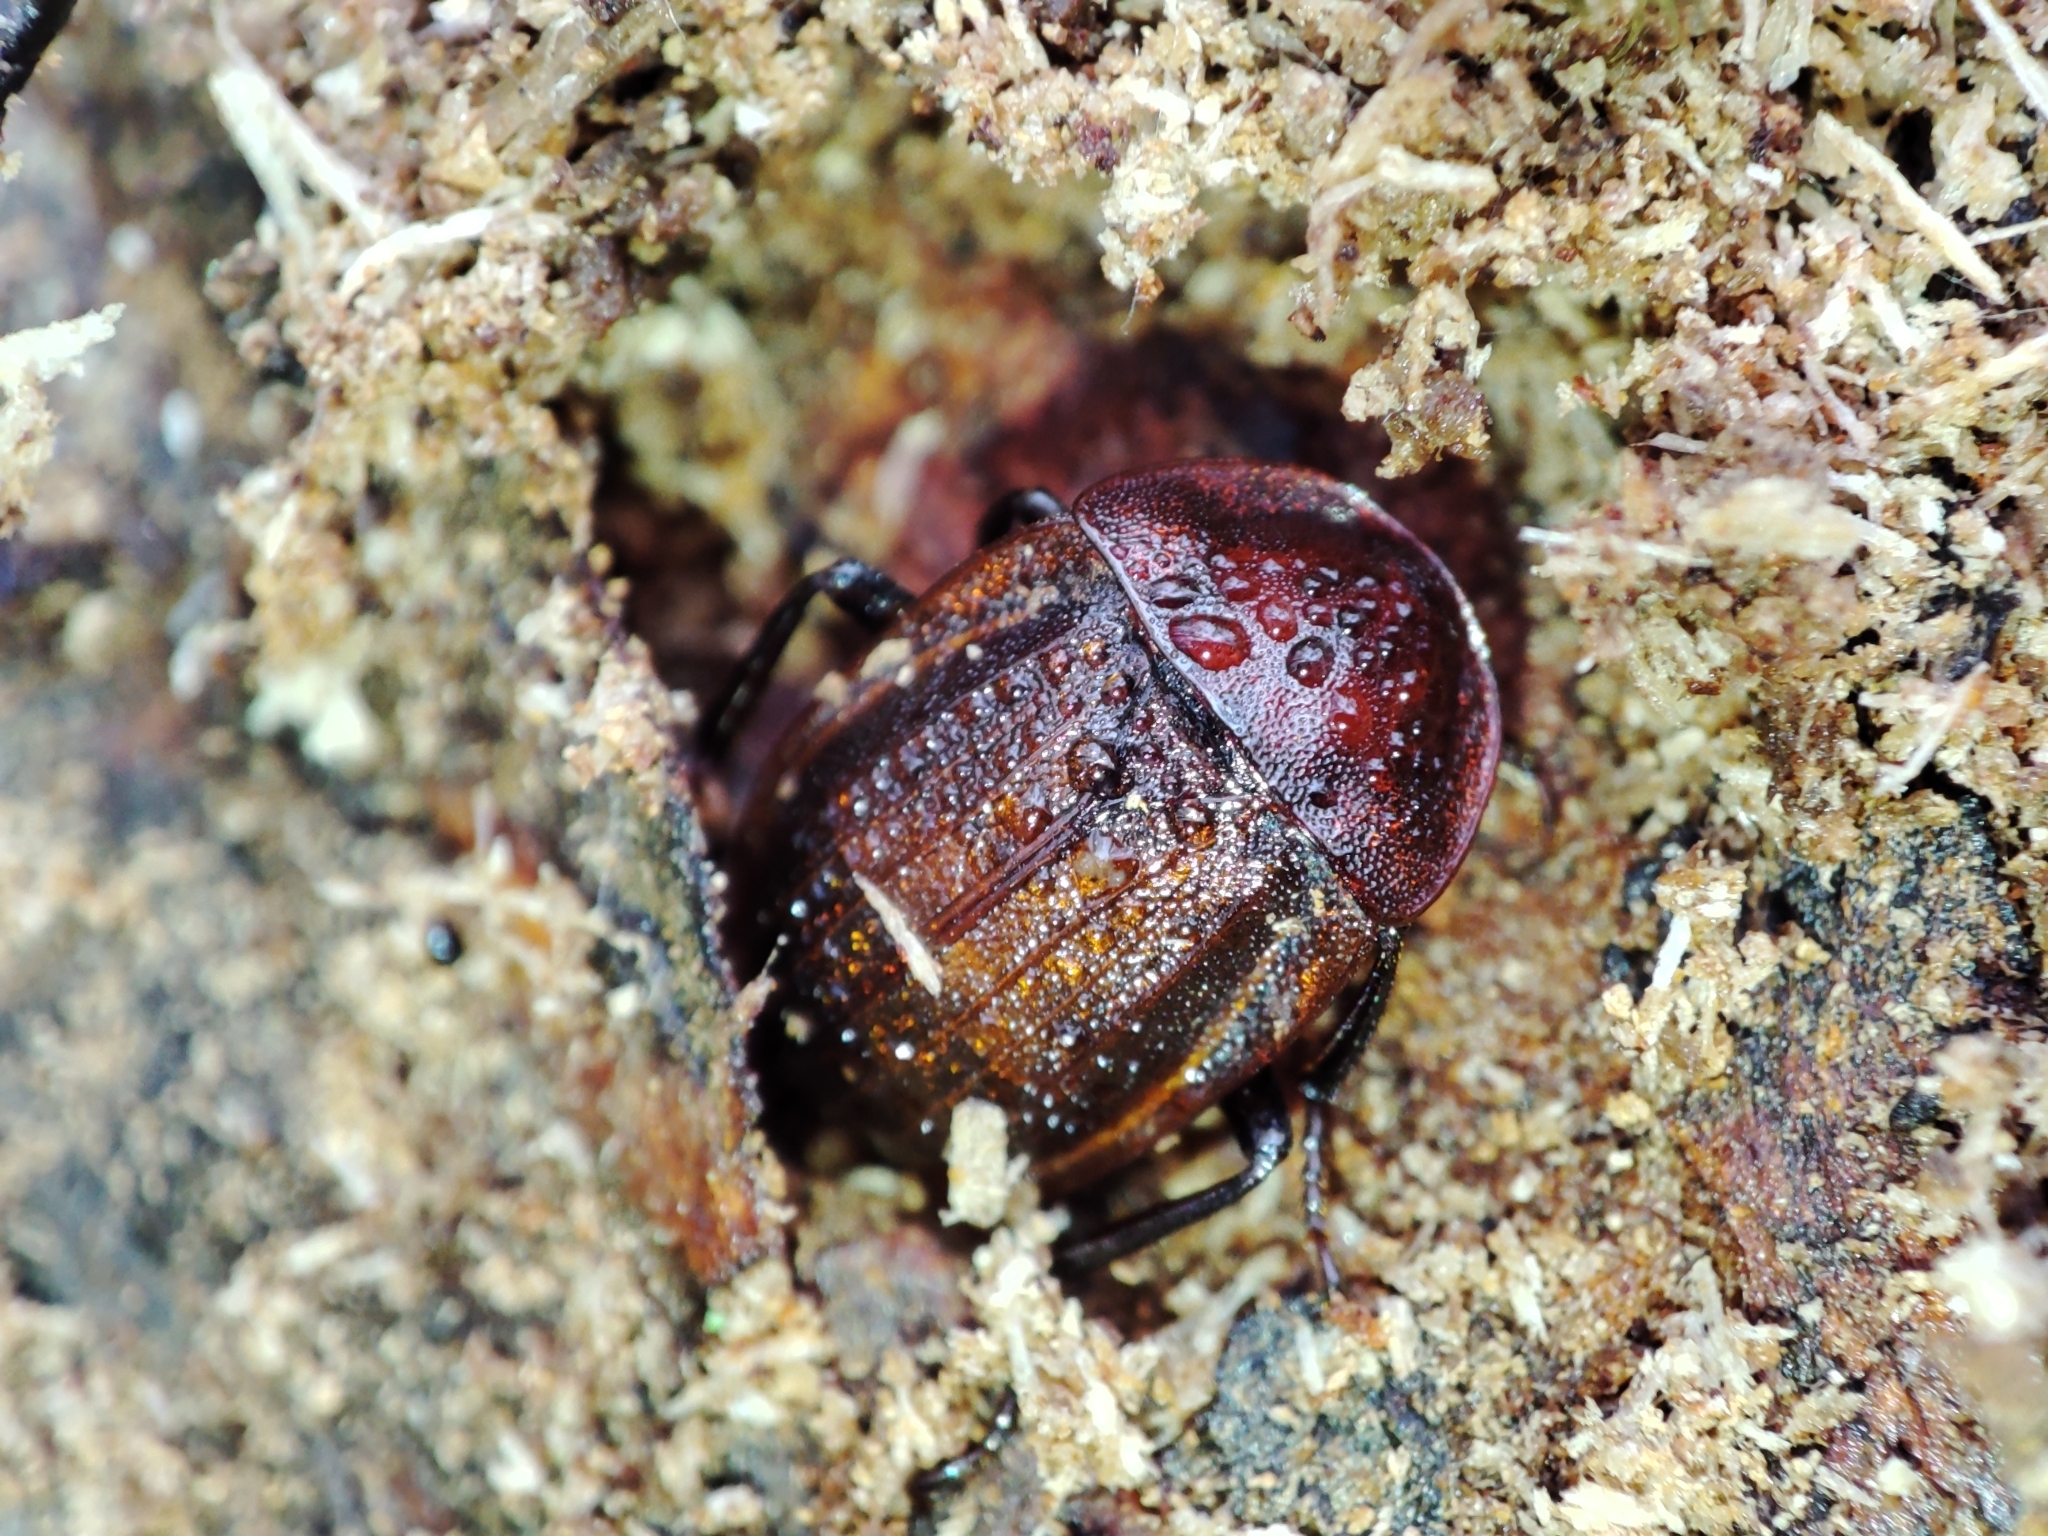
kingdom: Animalia
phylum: Arthropoda
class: Insecta
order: Coleoptera
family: Staphylinidae
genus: Silpha
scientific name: Silpha atrata
